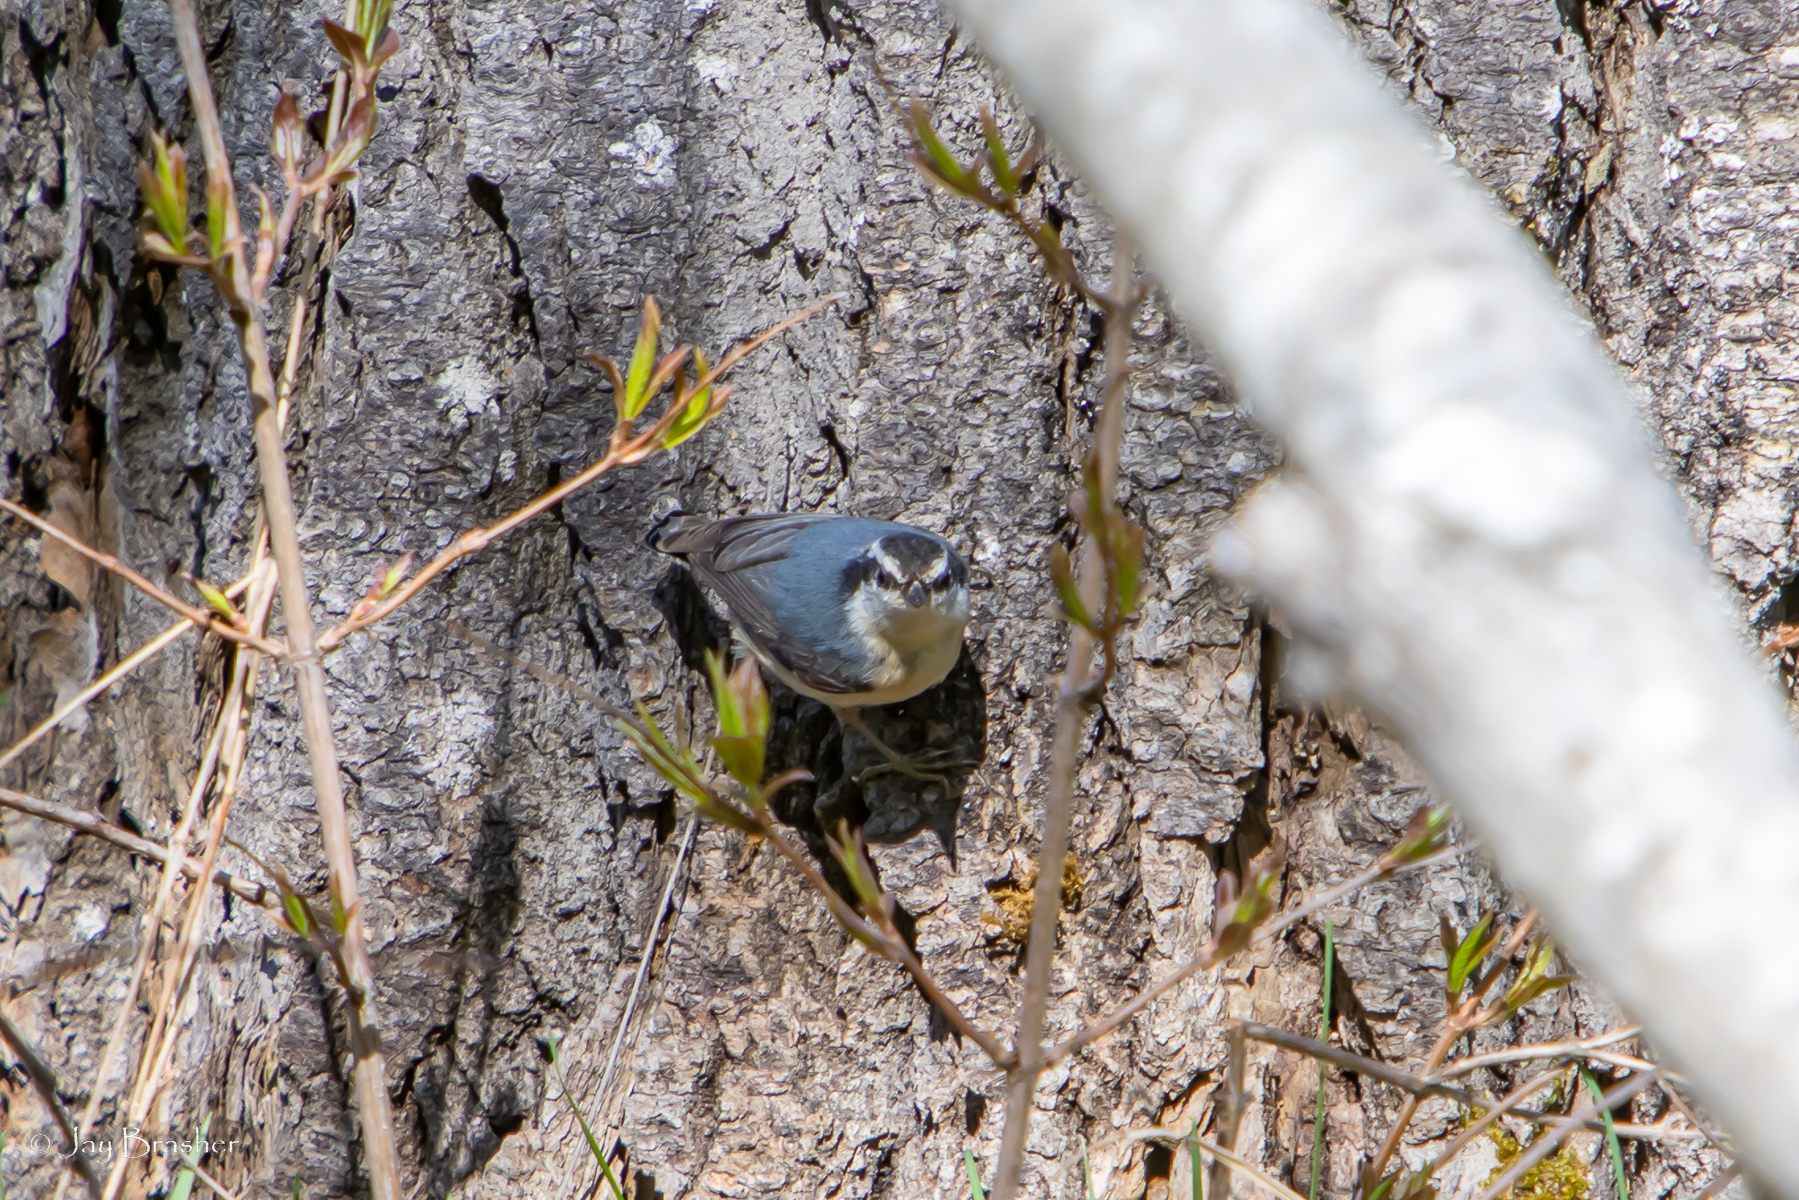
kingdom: Animalia
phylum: Chordata
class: Aves
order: Passeriformes
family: Sittidae
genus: Sitta
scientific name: Sitta canadensis
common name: Red-breasted nuthatch
